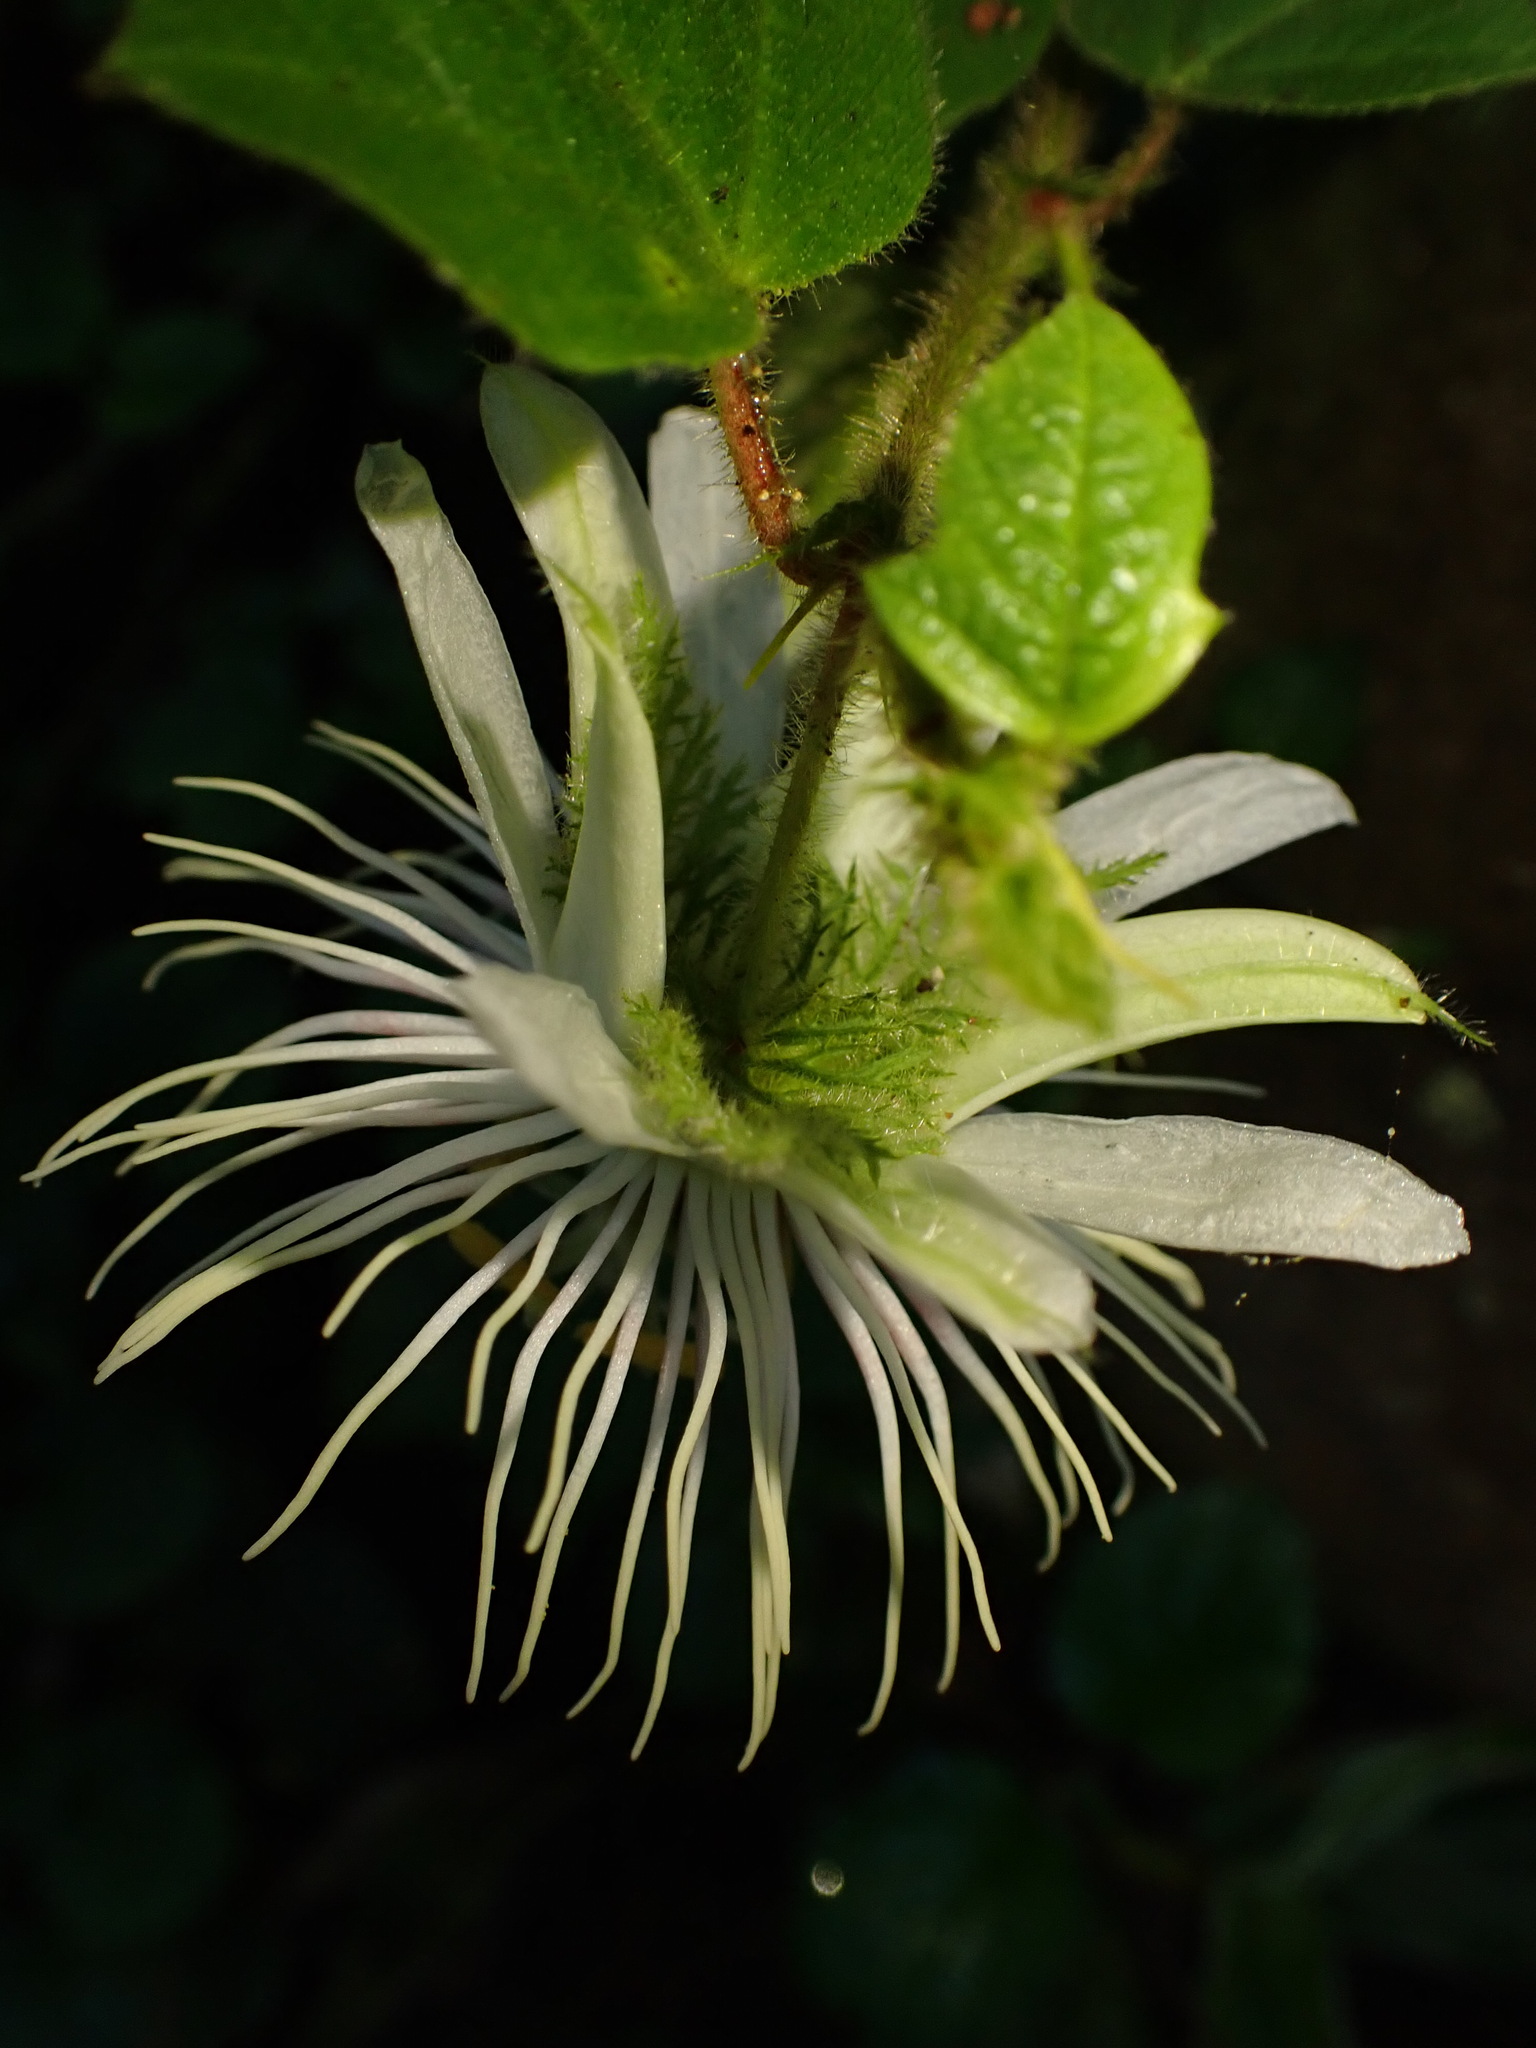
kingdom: Plantae
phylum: Tracheophyta
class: Magnoliopsida
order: Malpighiales
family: Passifloraceae
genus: Passiflora
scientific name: Passiflora vellozii
